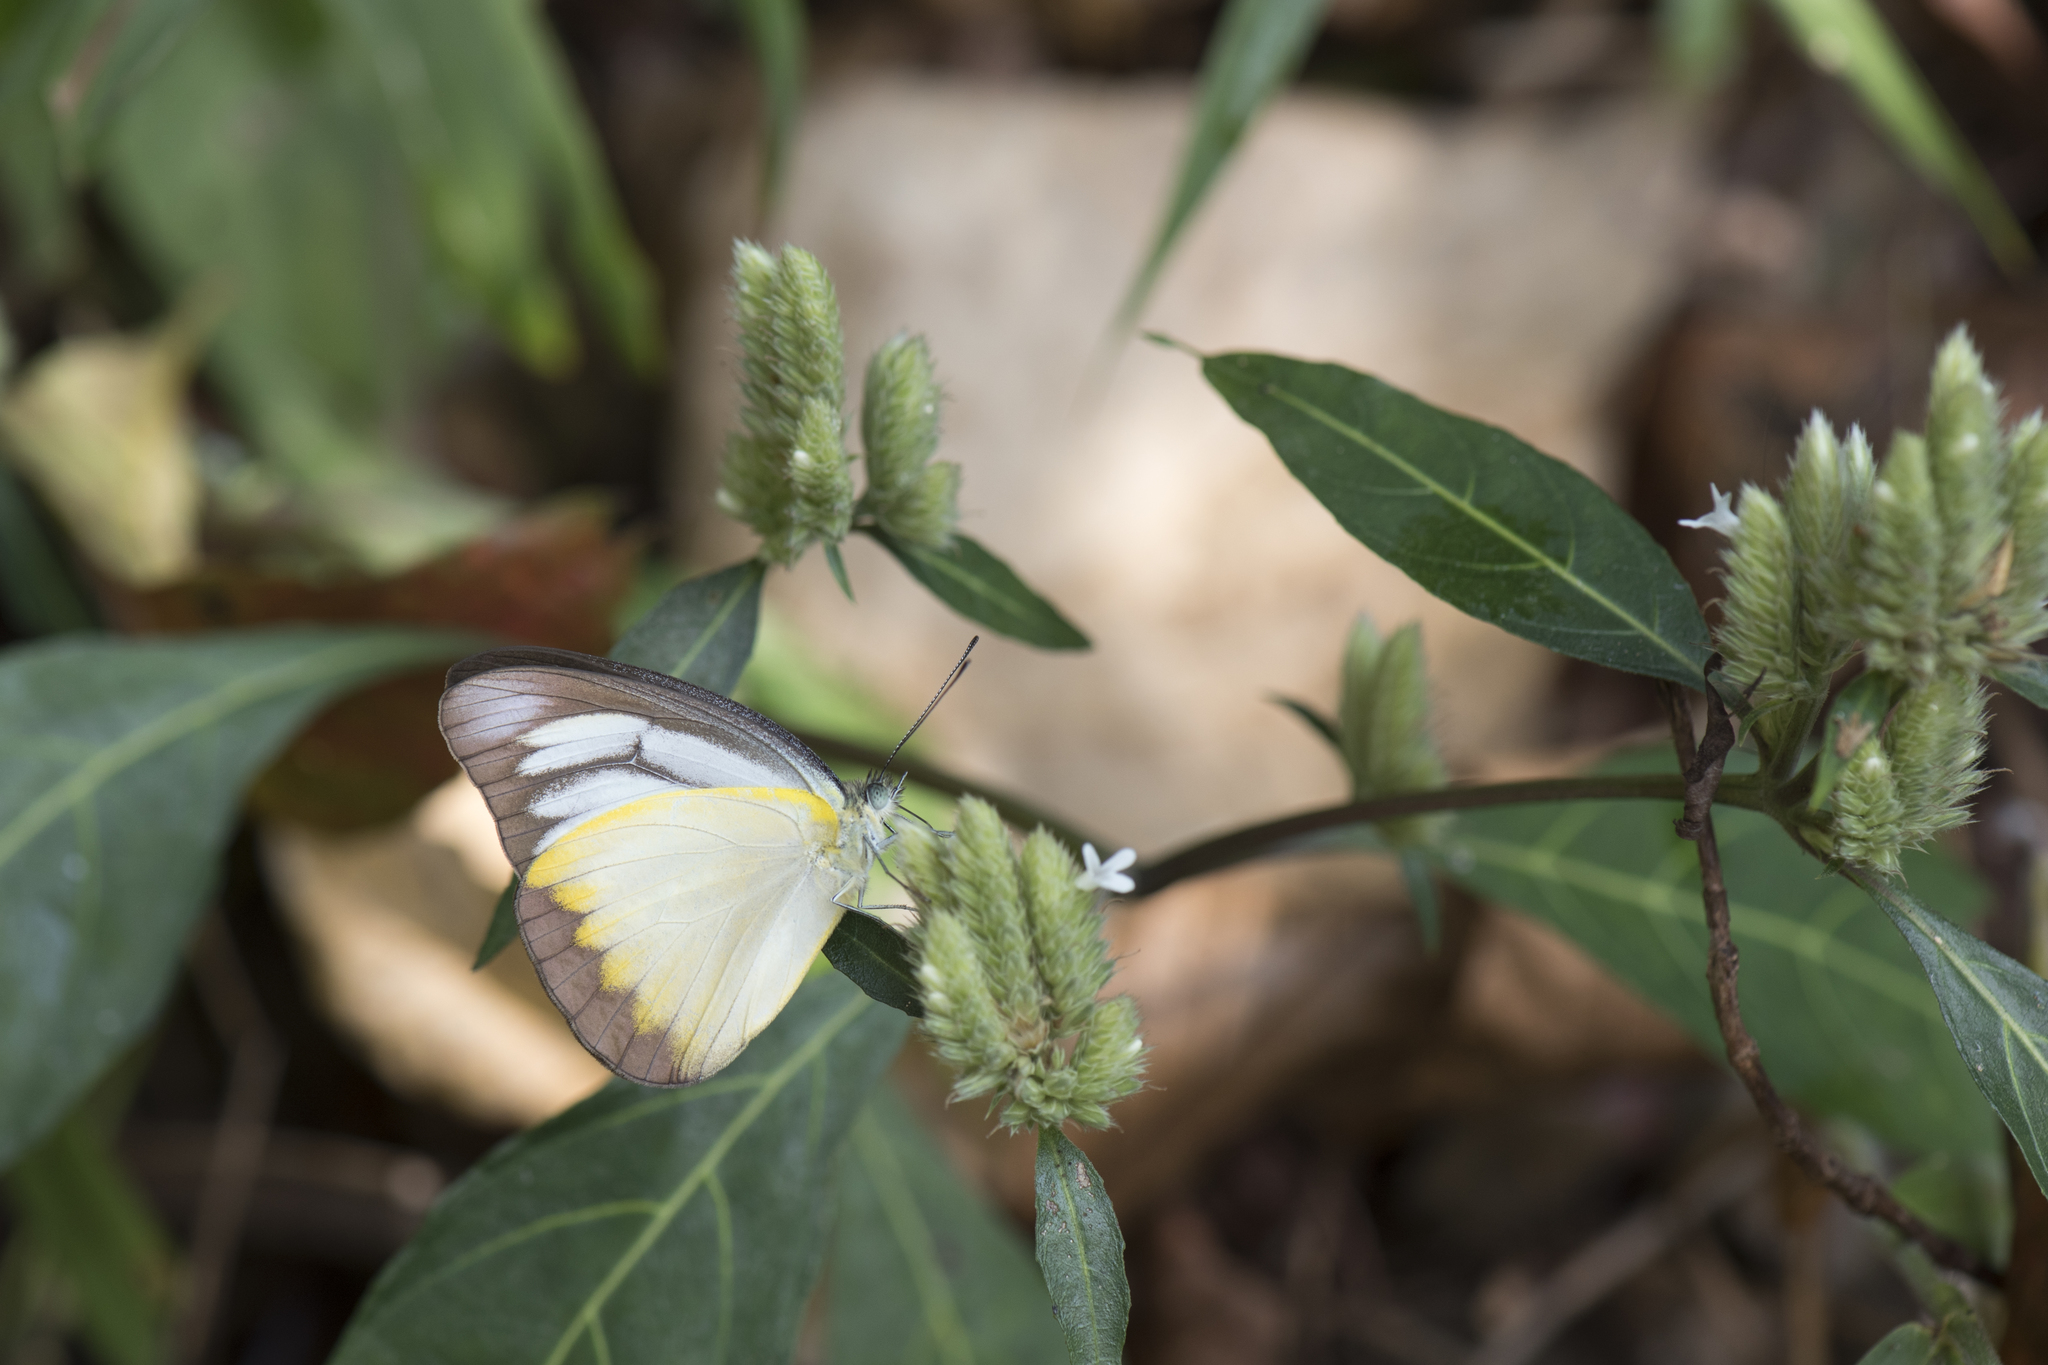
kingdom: Animalia
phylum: Arthropoda
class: Insecta
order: Lepidoptera
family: Pieridae
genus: Appias
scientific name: Appias lyncida
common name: Chocolate albatross
